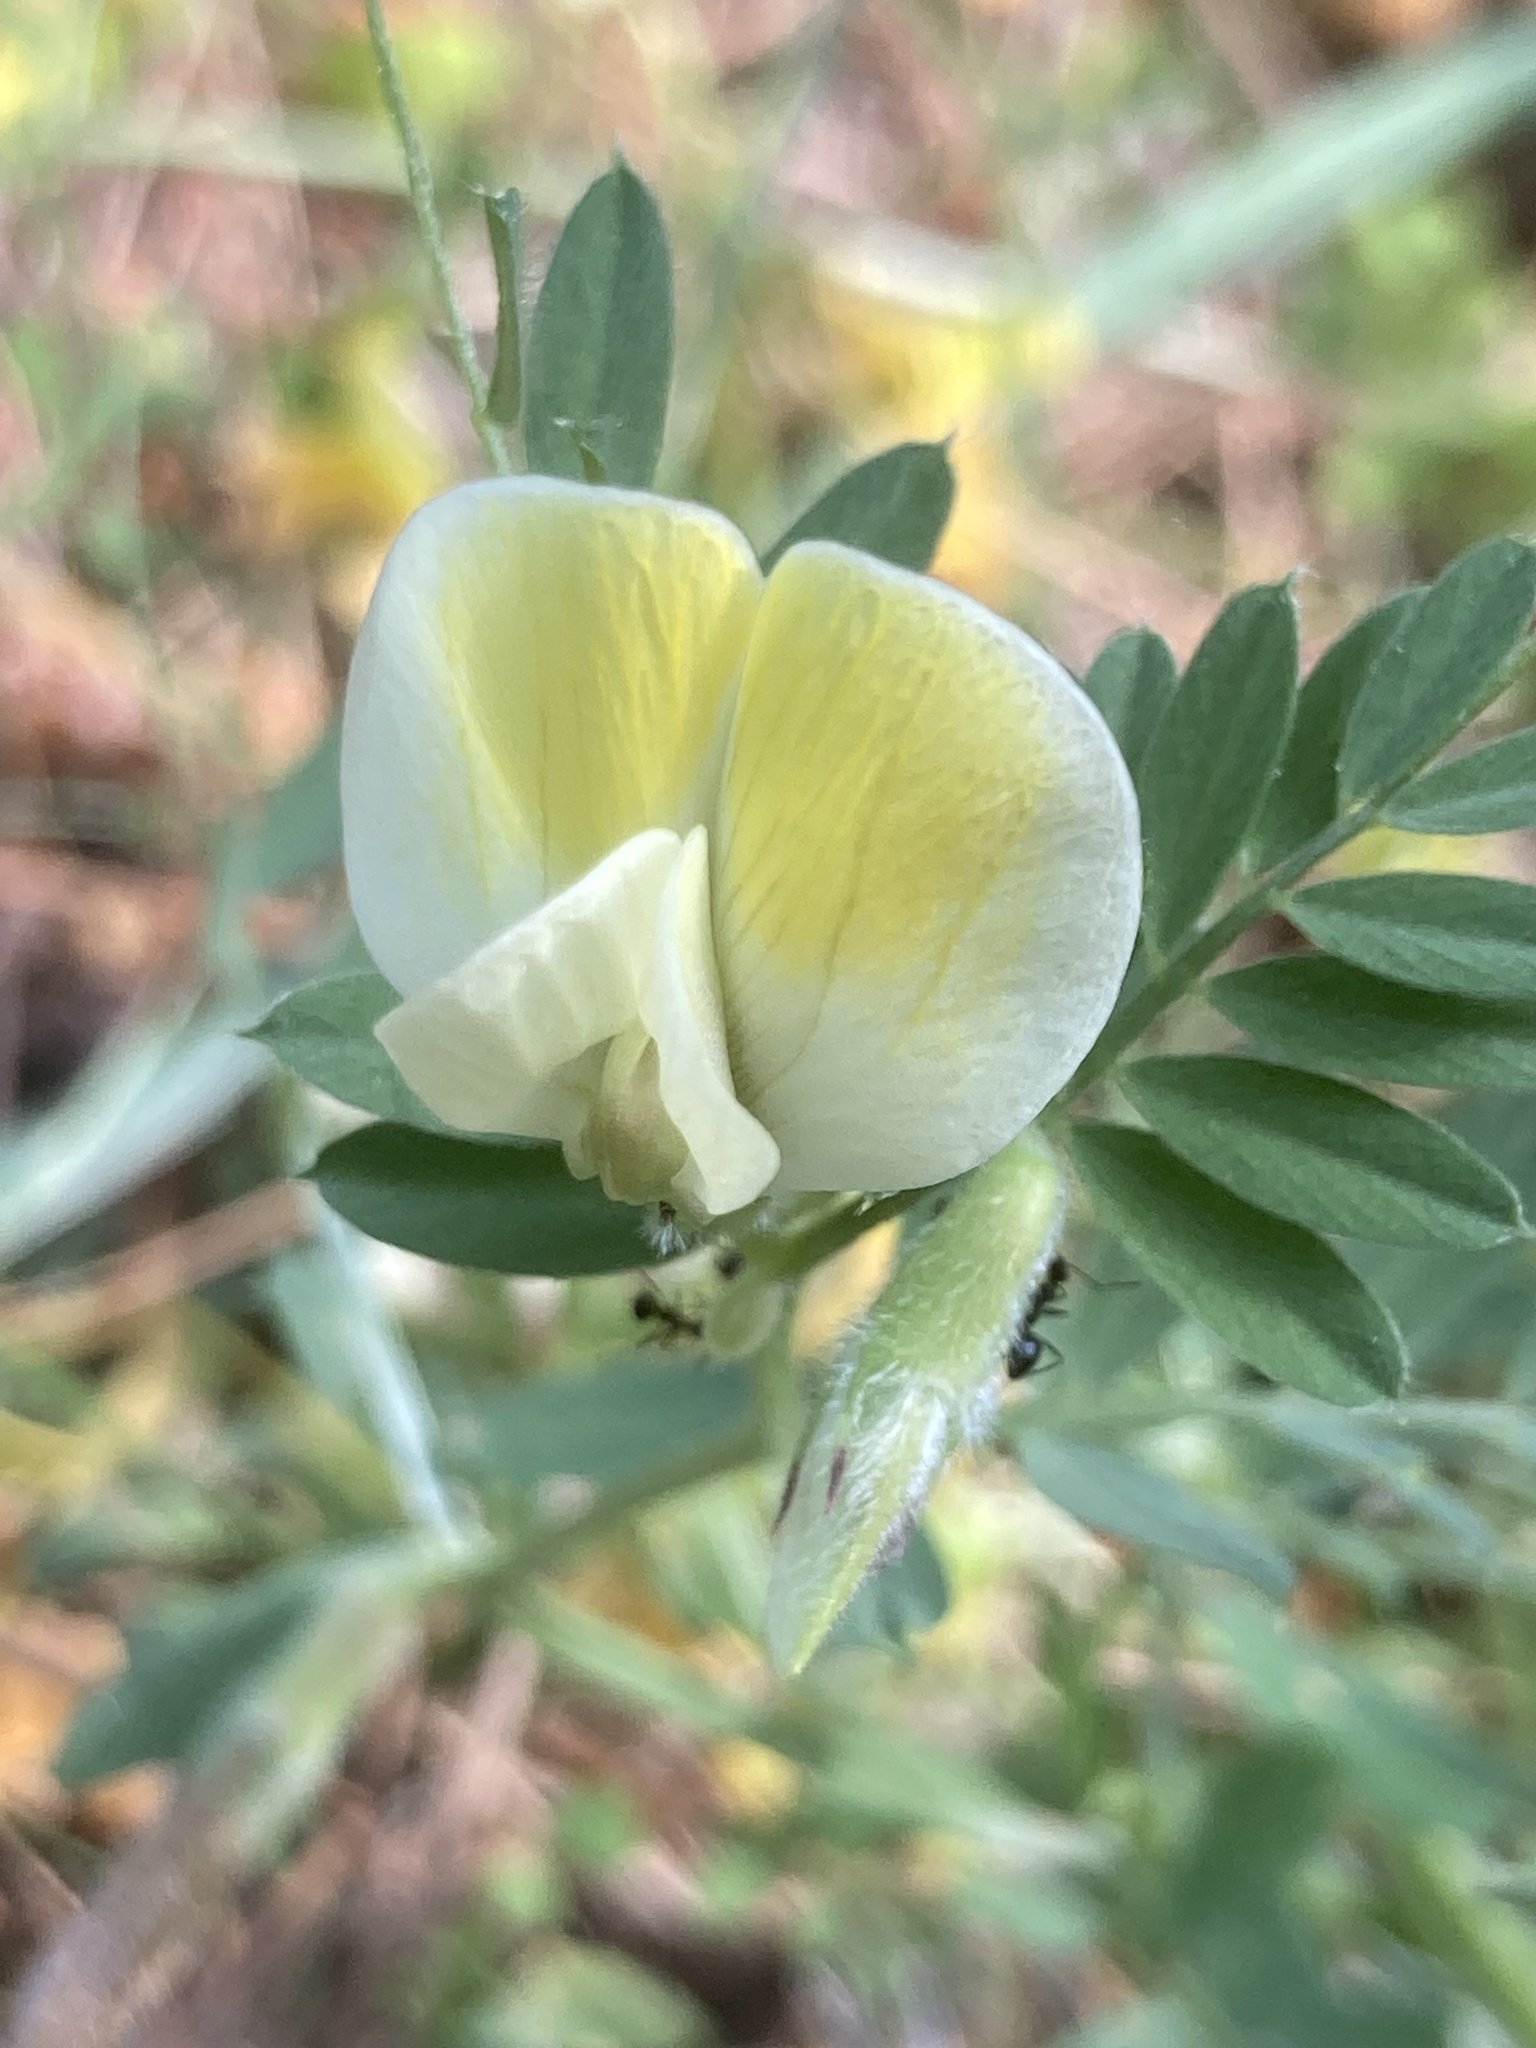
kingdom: Plantae
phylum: Tracheophyta
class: Magnoliopsida
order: Fabales
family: Fabaceae
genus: Vicia
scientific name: Vicia hybrida
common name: Hairy yellow vetch
